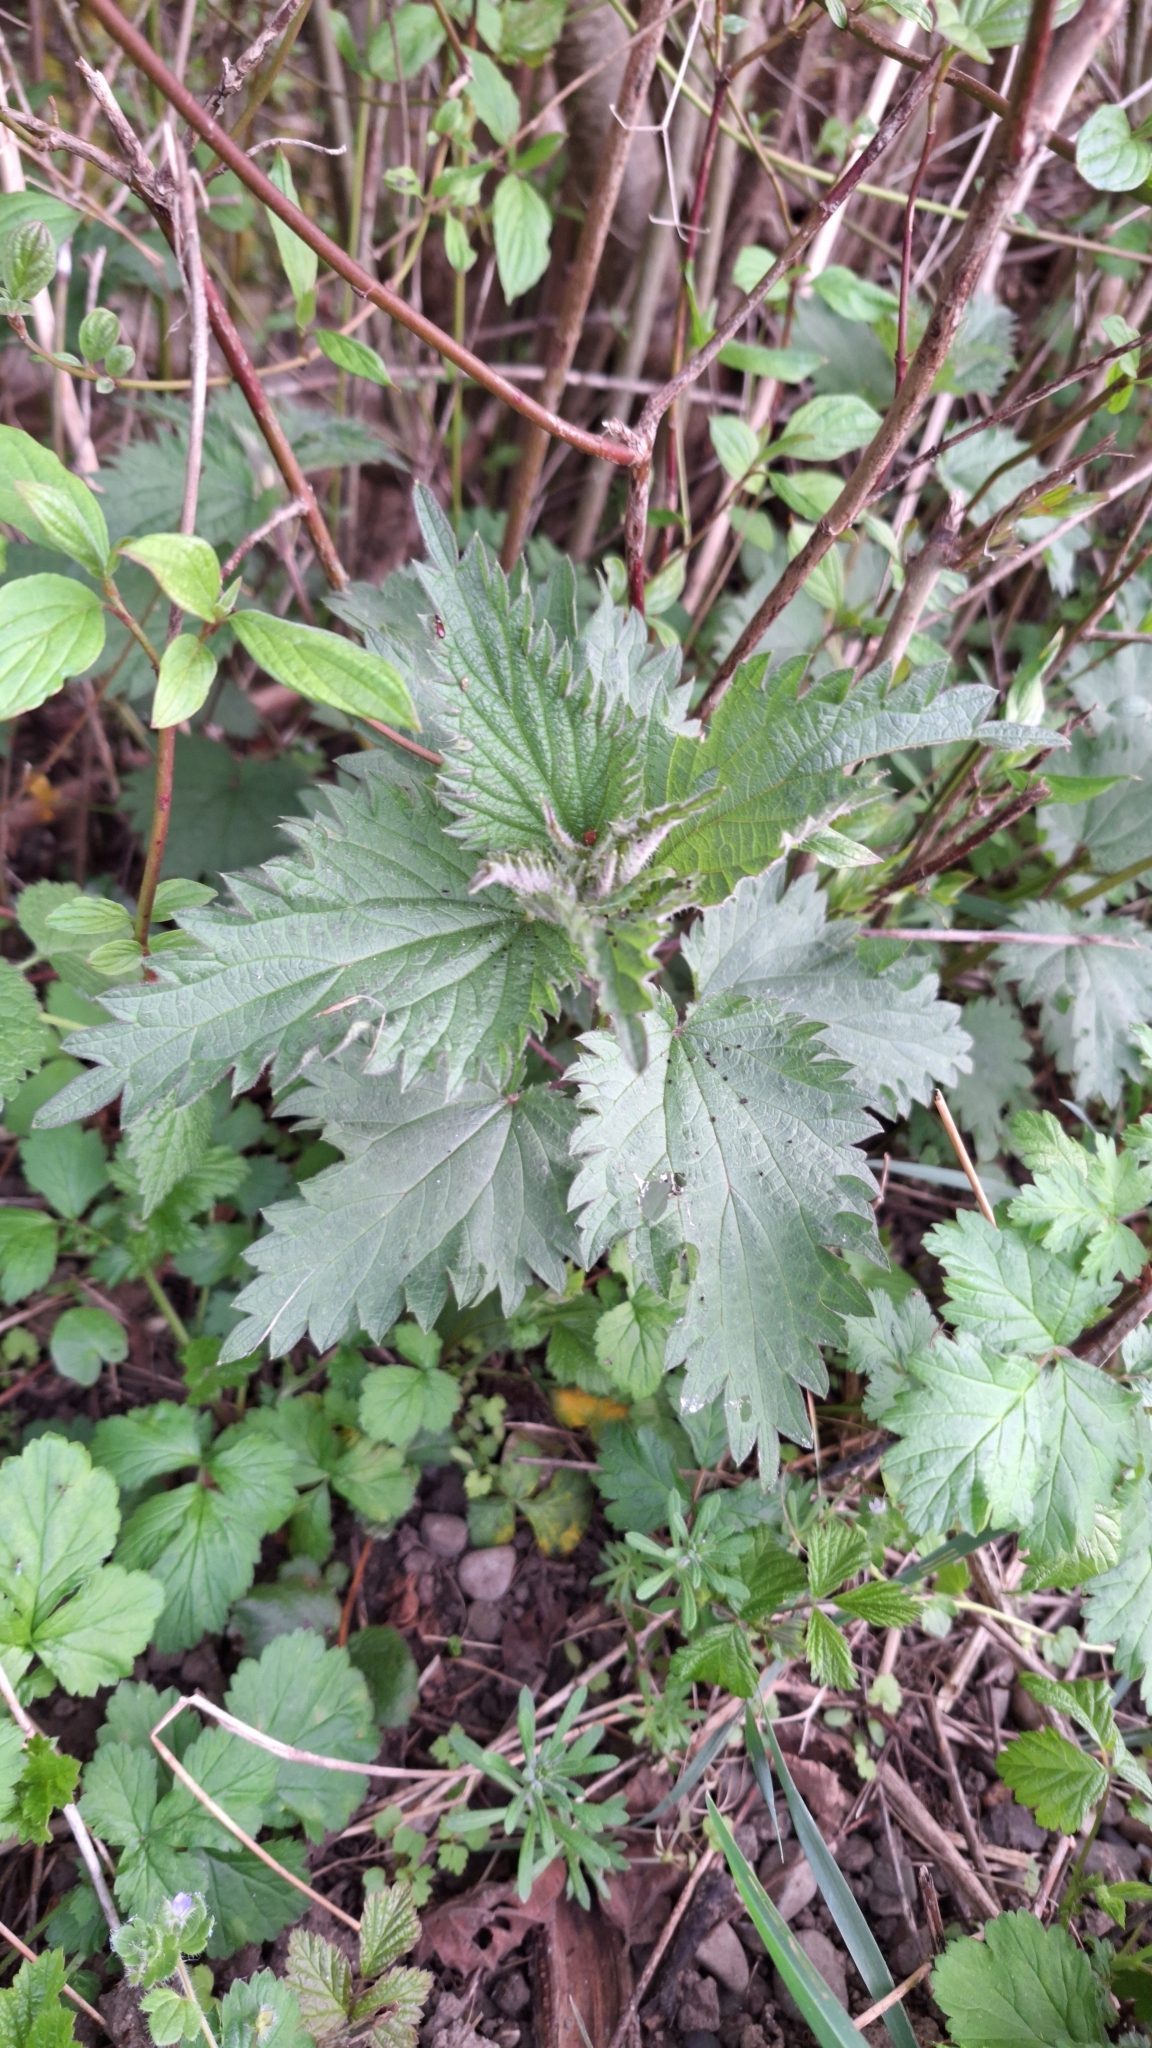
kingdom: Plantae
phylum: Tracheophyta
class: Magnoliopsida
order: Rosales
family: Urticaceae
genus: Urtica
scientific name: Urtica dioica
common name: Common nettle
